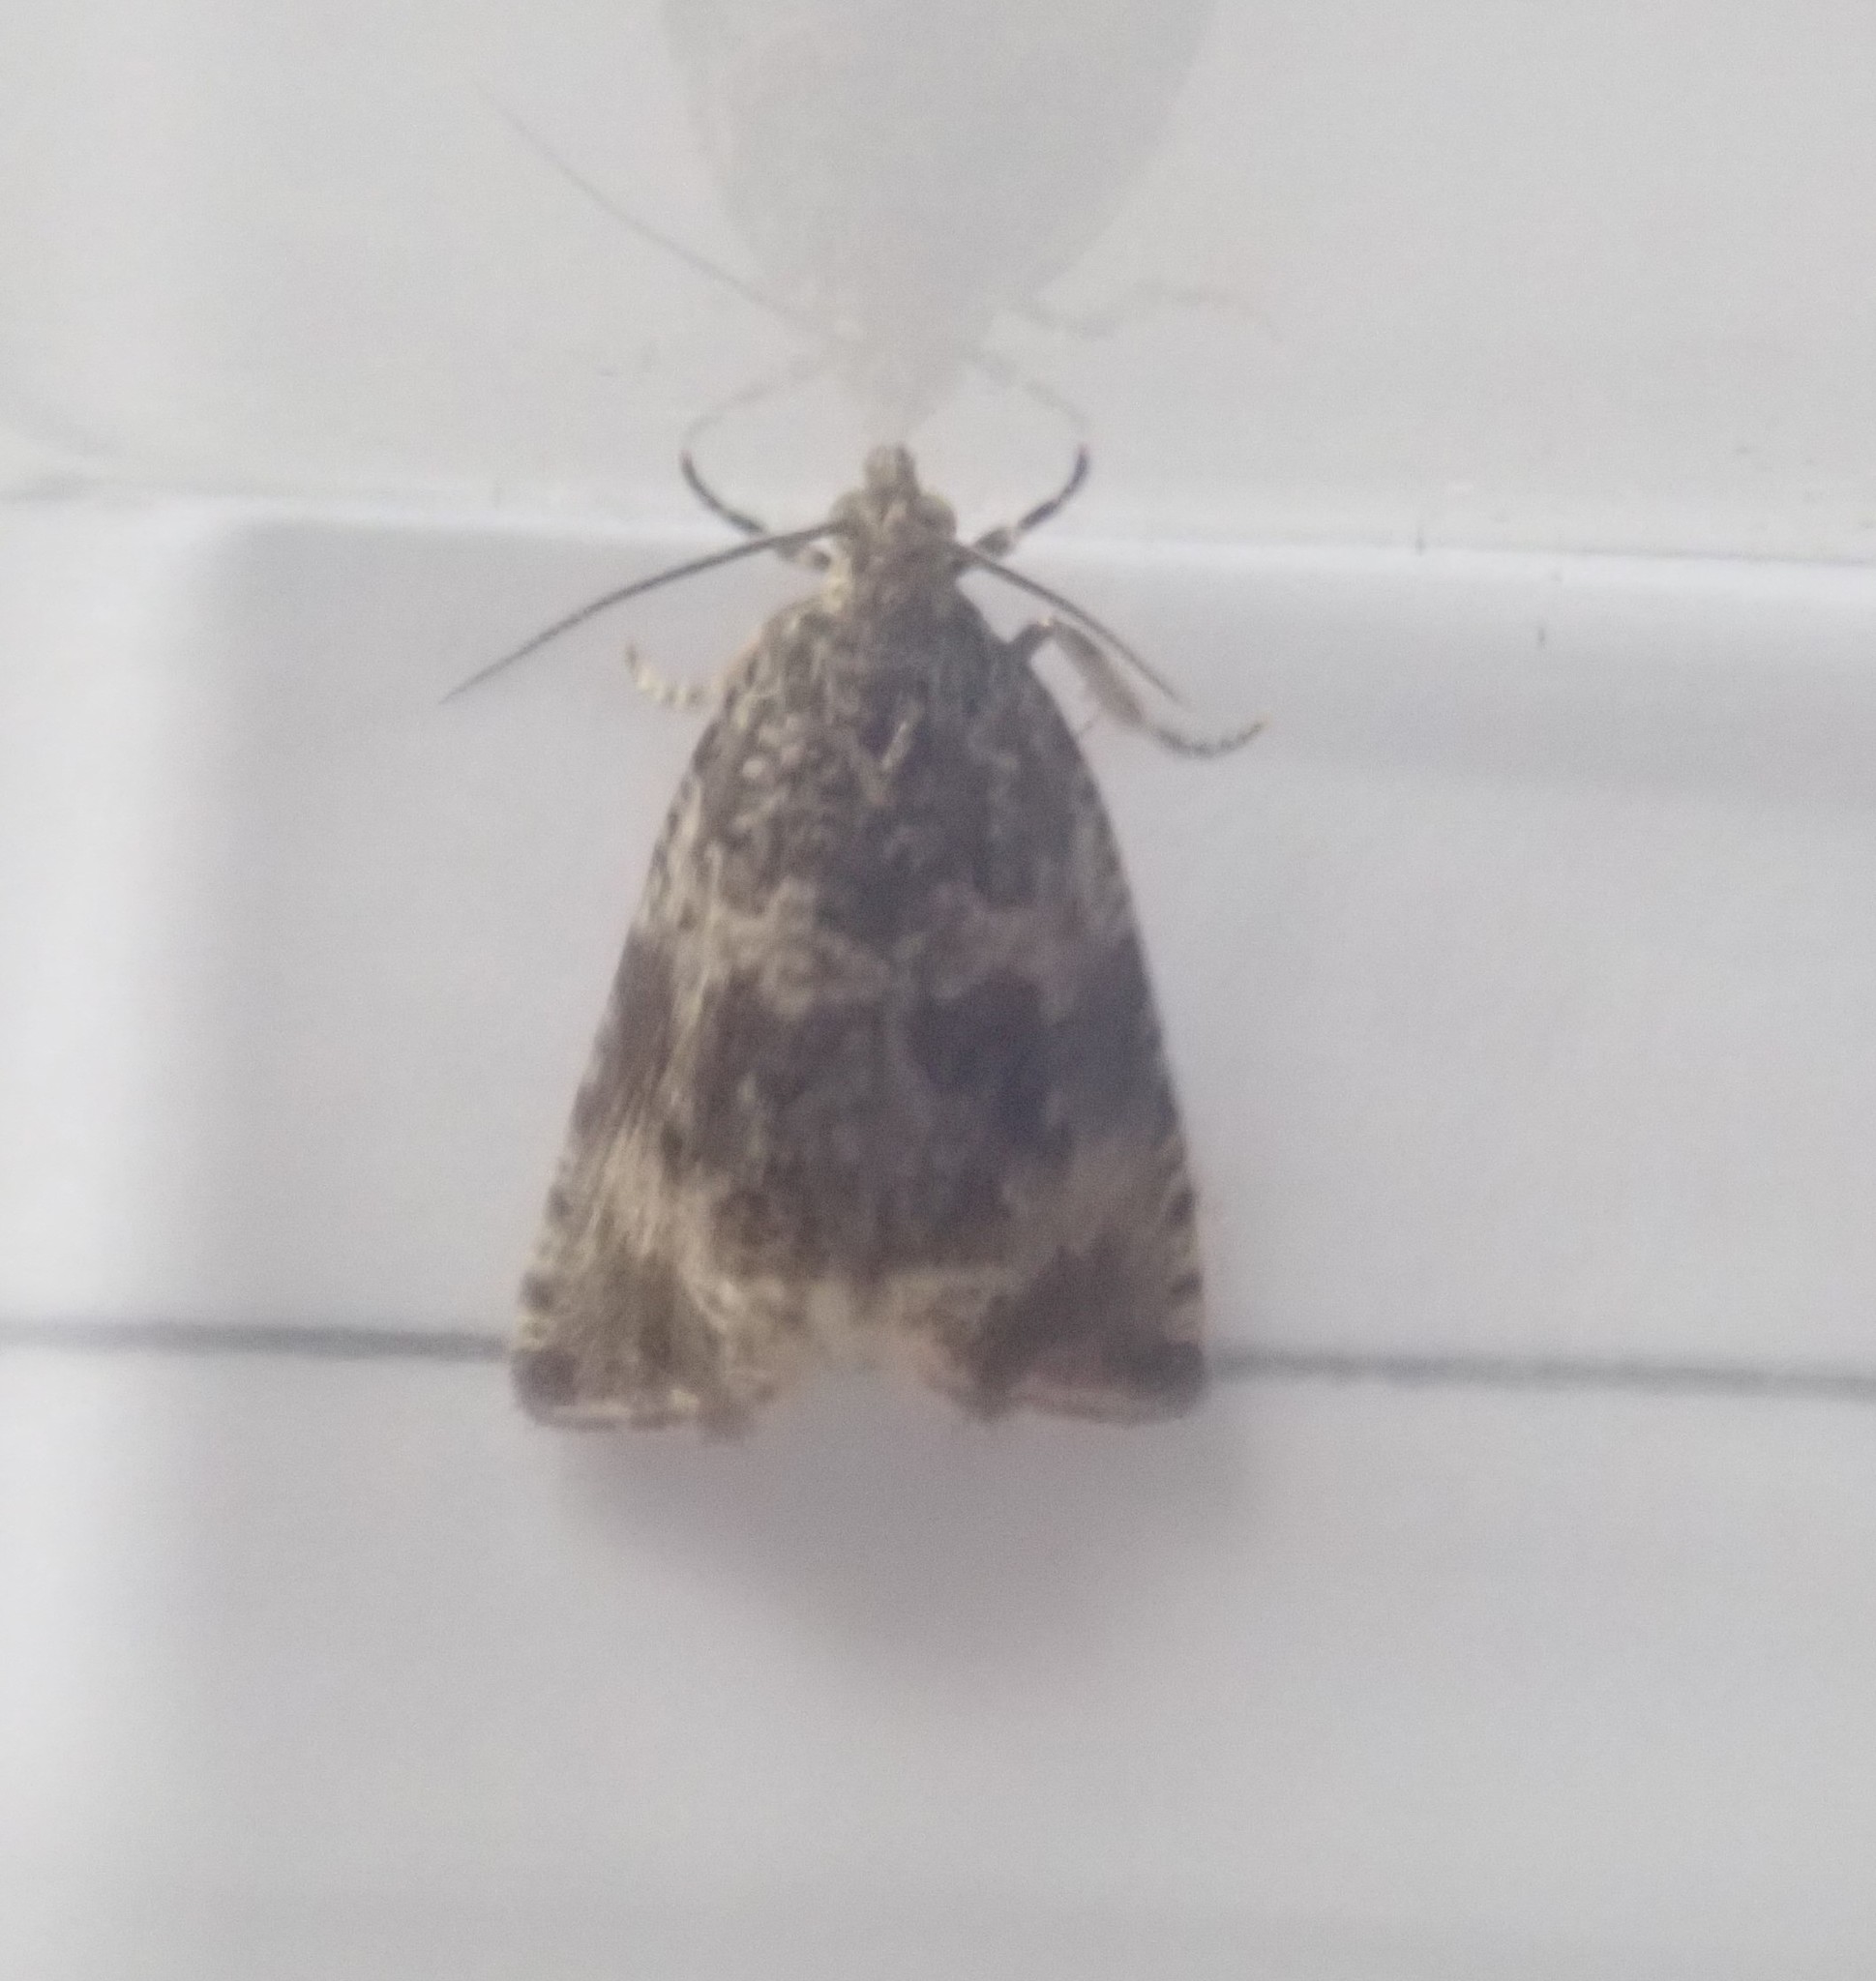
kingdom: Animalia
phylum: Arthropoda
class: Insecta
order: Lepidoptera
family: Tortricidae
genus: Syricoris
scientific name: Syricoris lacunana
